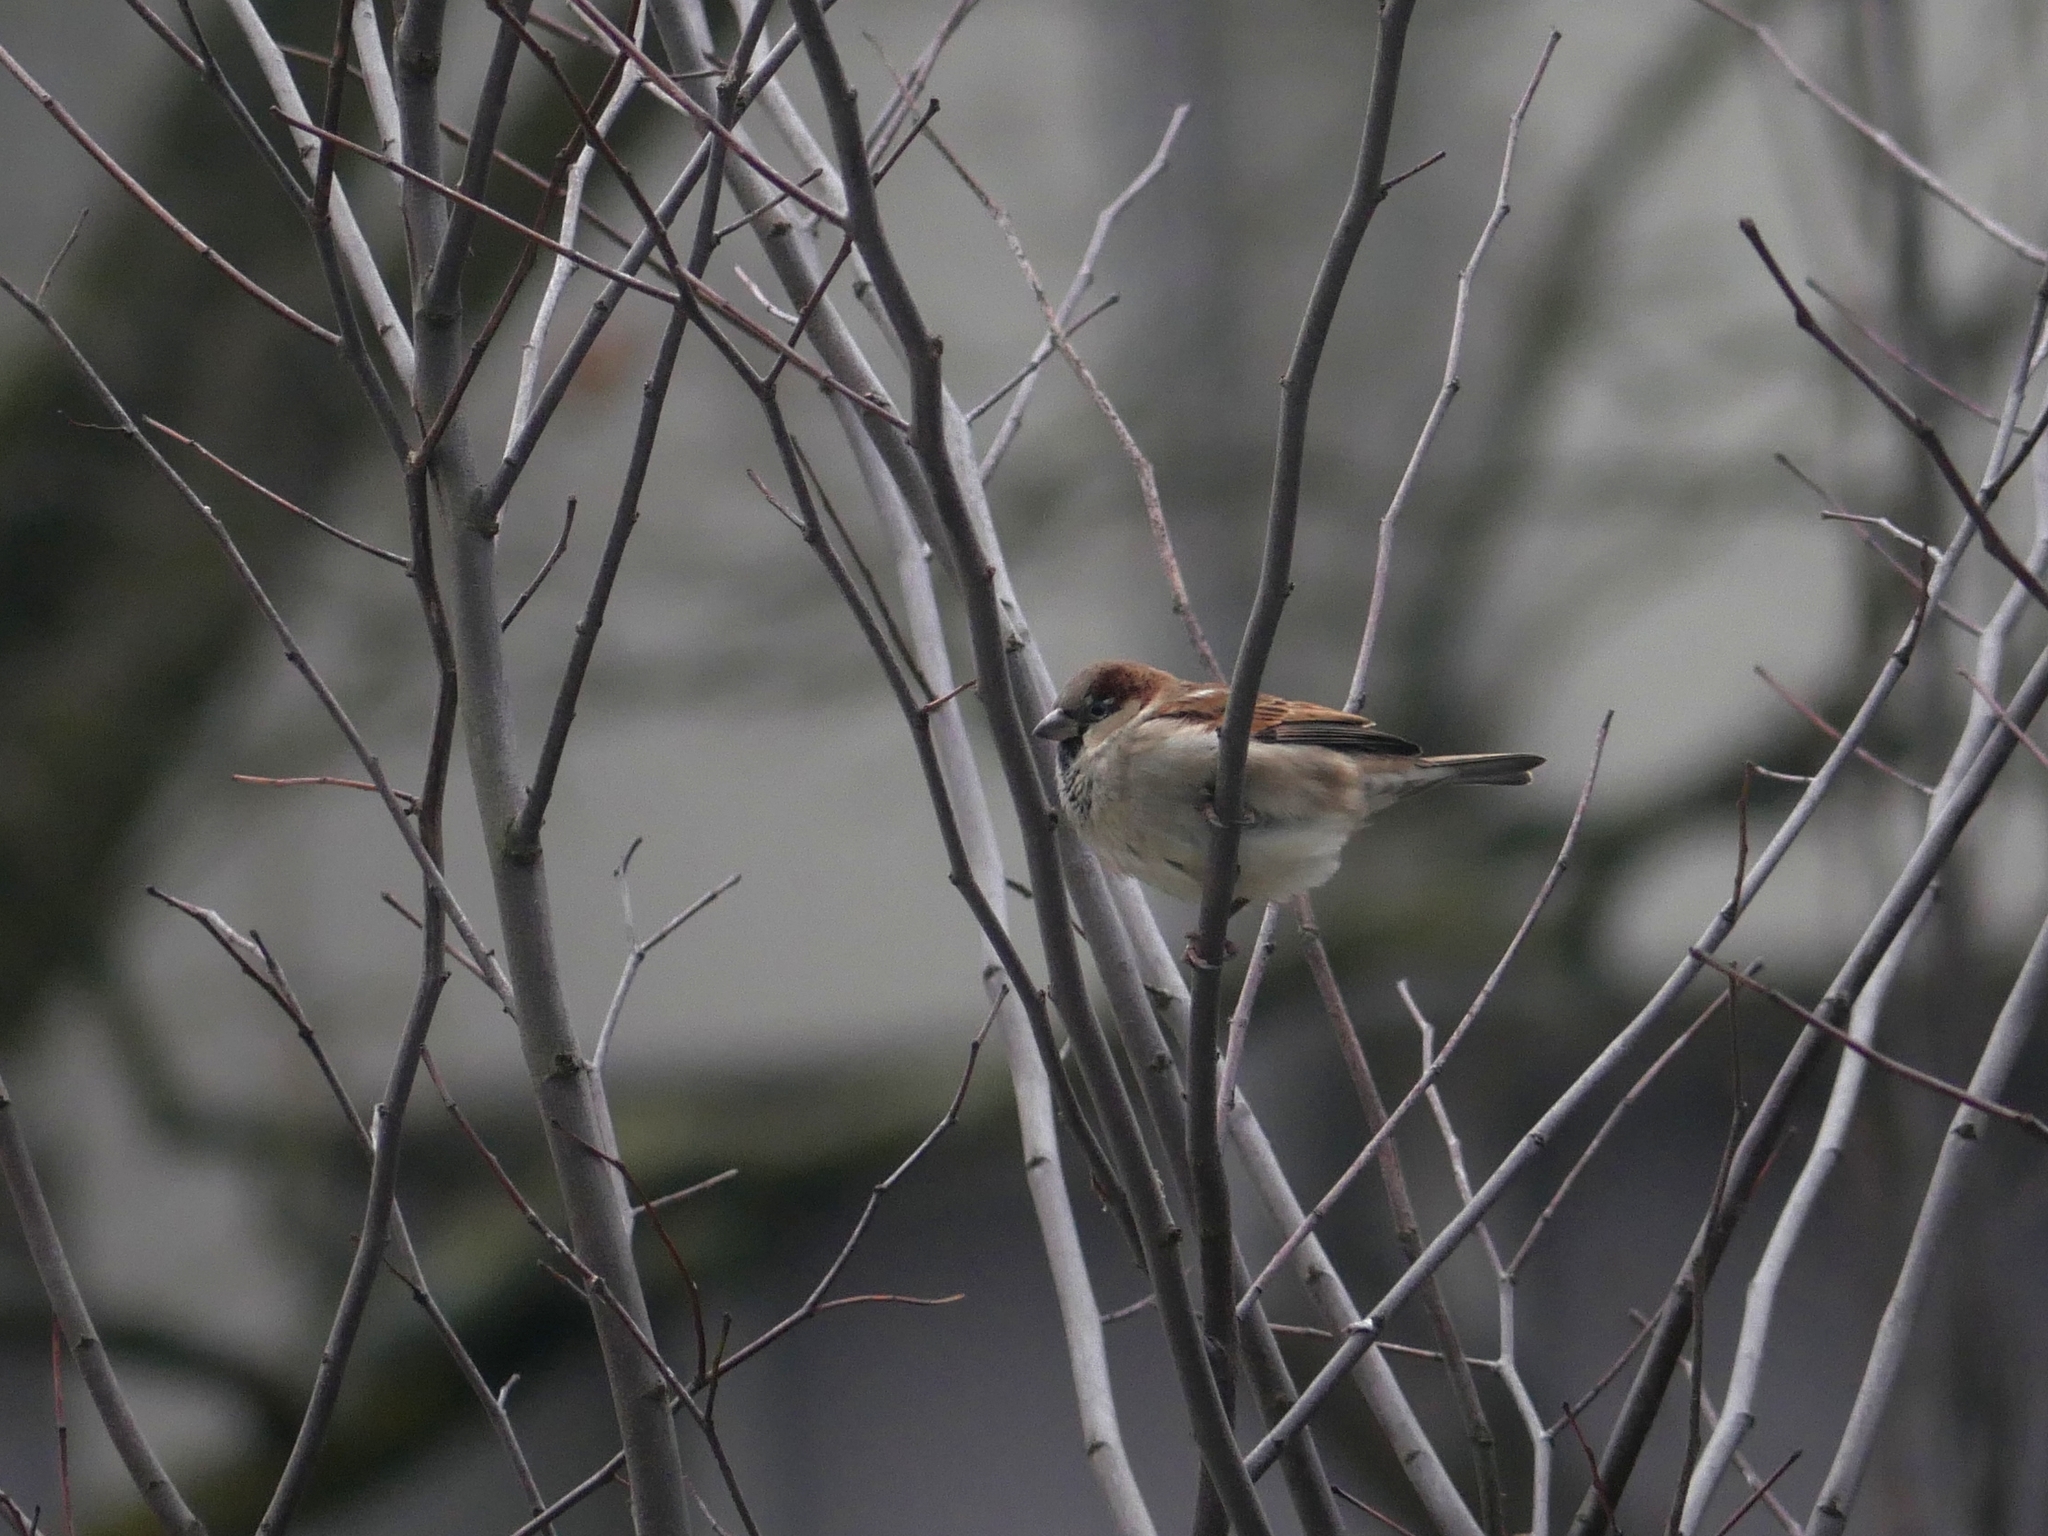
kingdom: Animalia
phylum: Chordata
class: Aves
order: Passeriformes
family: Passeridae
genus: Passer
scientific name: Passer domesticus
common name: House sparrow
